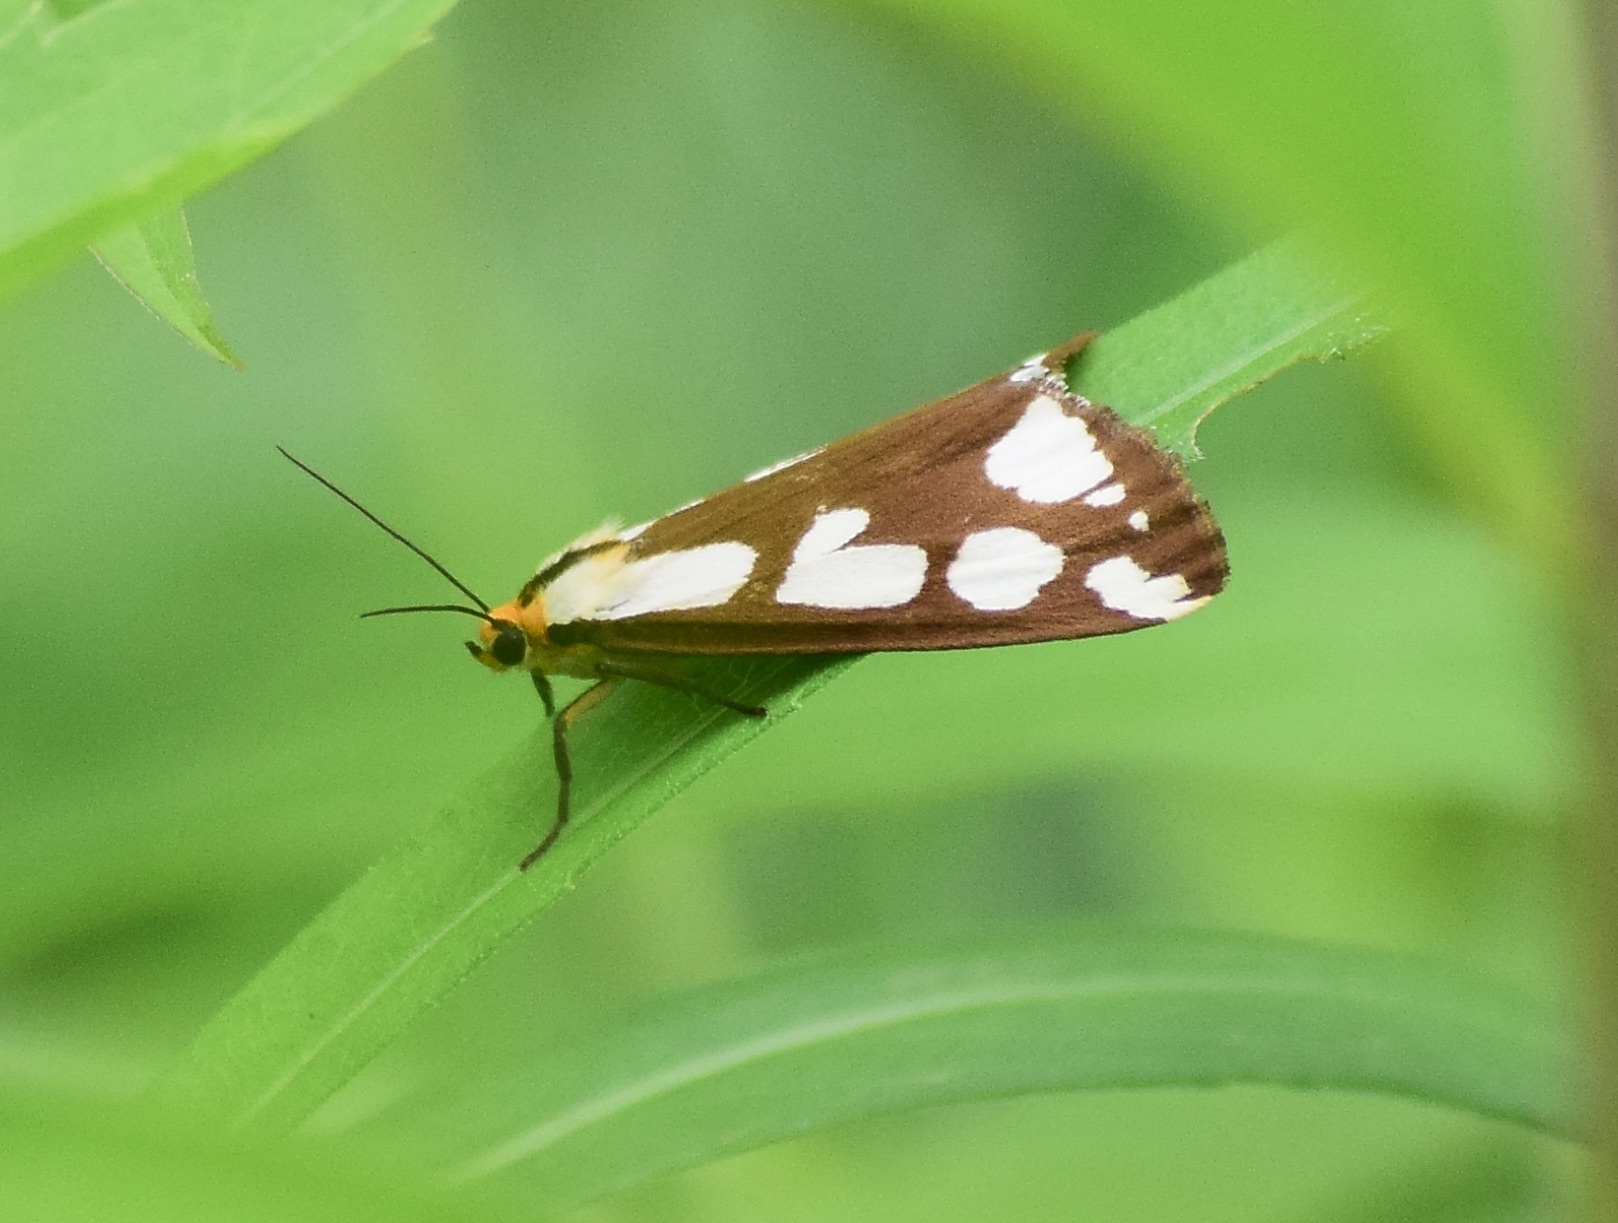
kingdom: Animalia
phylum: Arthropoda
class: Insecta
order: Lepidoptera
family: Erebidae
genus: Haploa
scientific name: Haploa confusa
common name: Confused haploa moth
